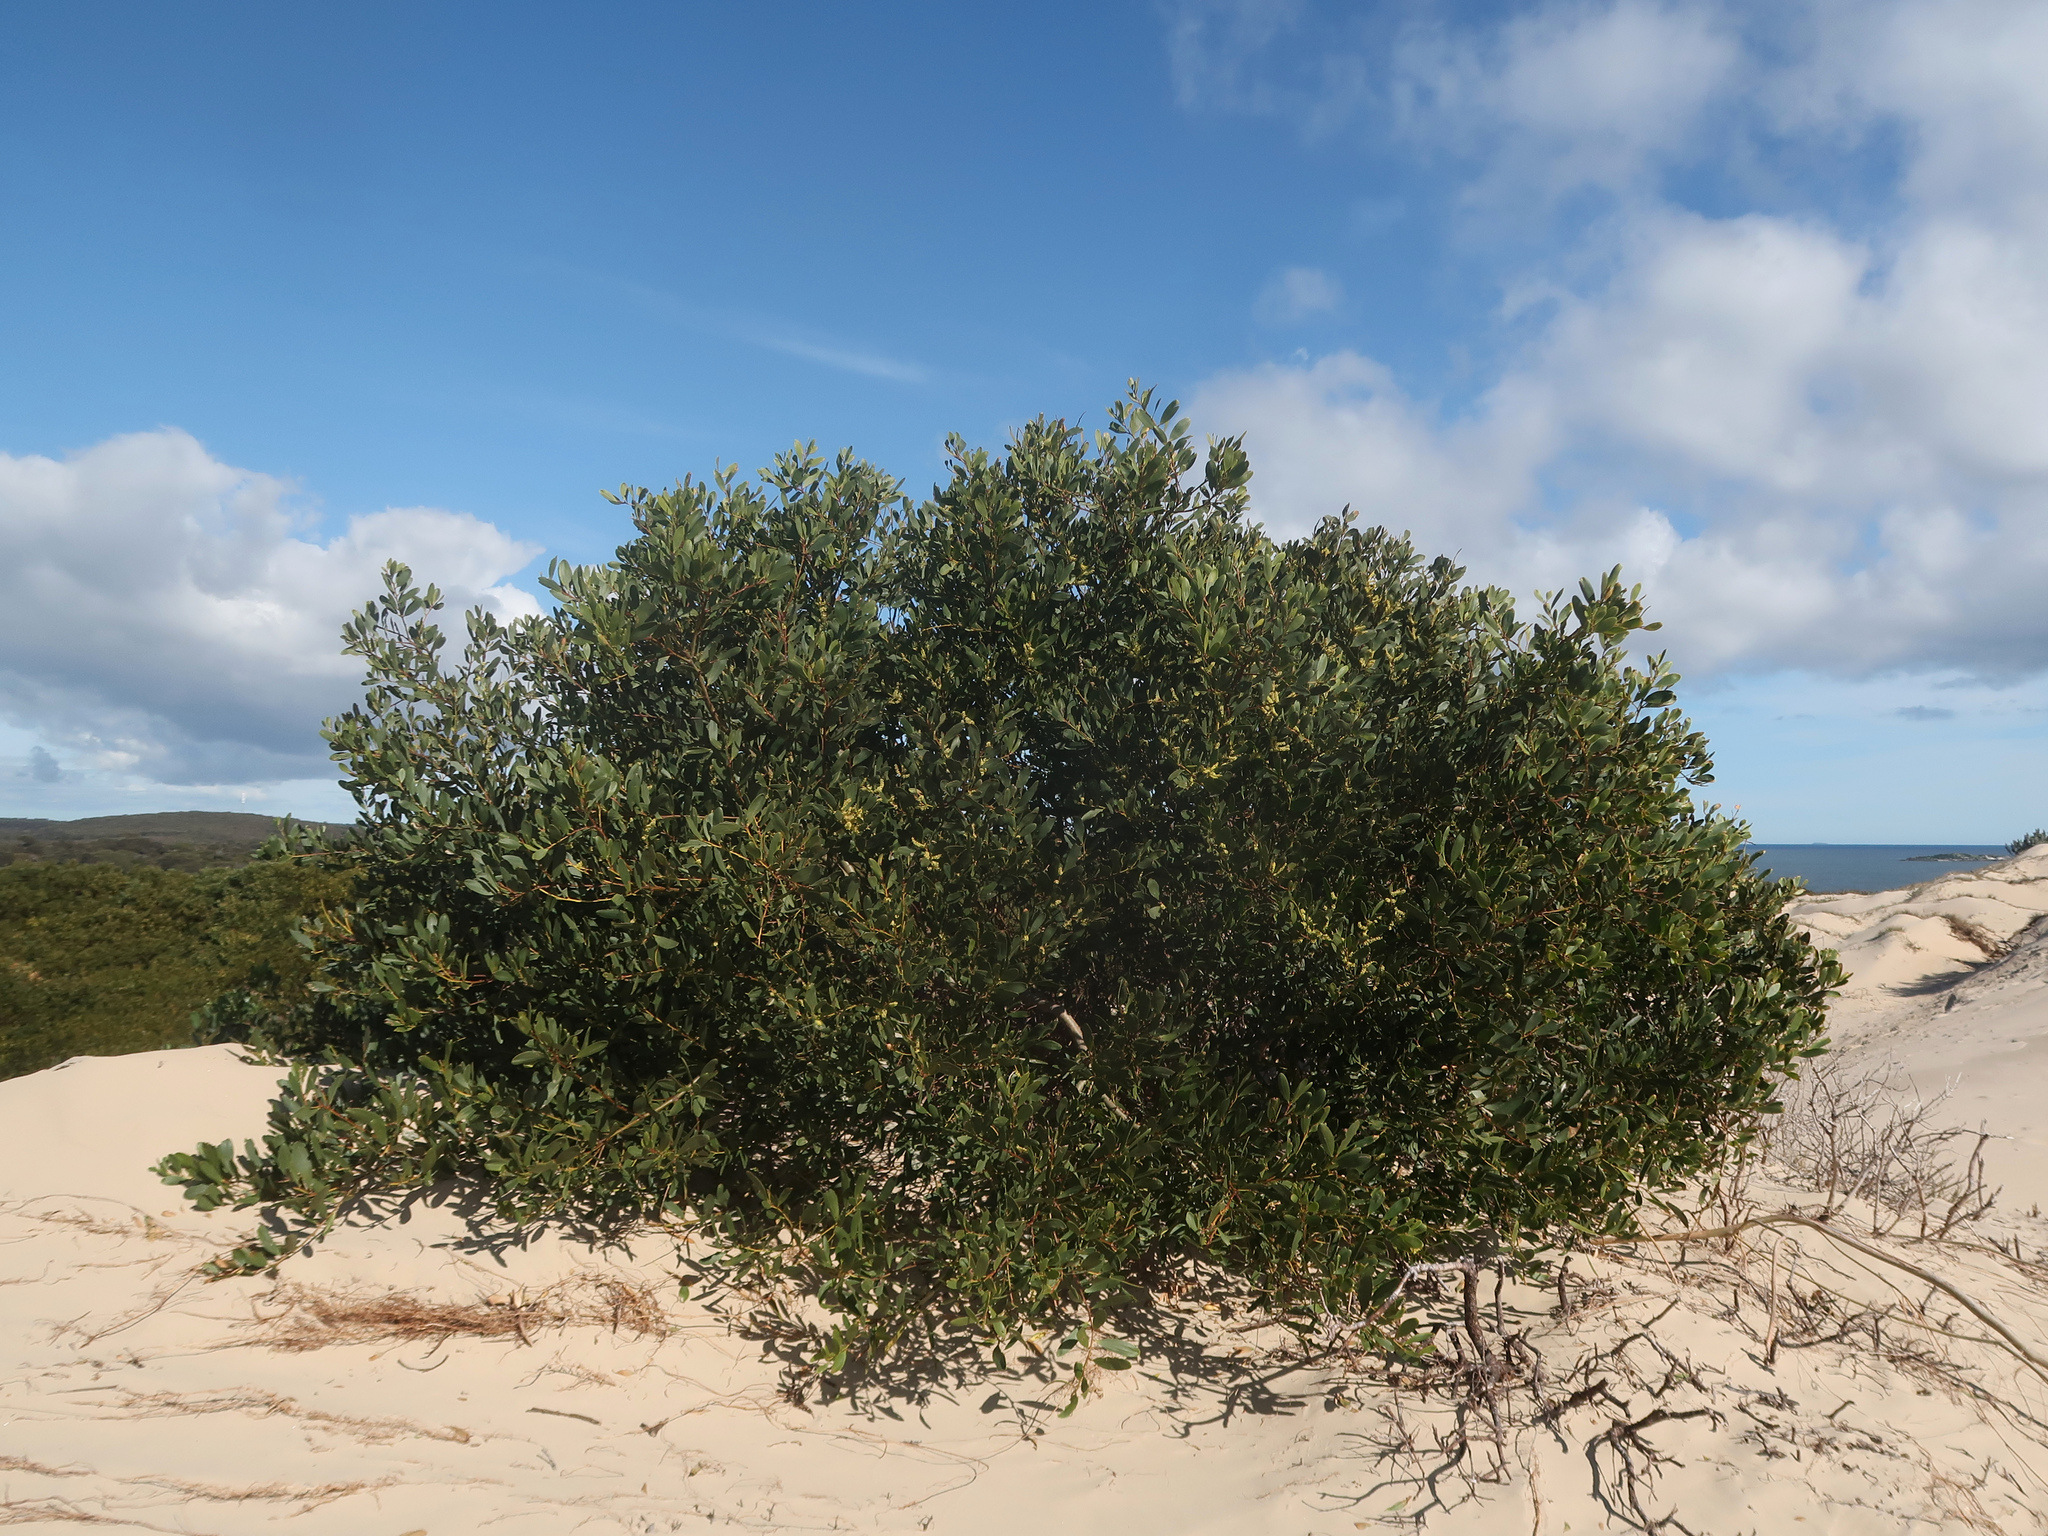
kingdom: Plantae
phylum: Tracheophyta
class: Magnoliopsida
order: Fabales
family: Fabaceae
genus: Acacia
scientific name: Acacia longifolia
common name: Sydney golden wattle
